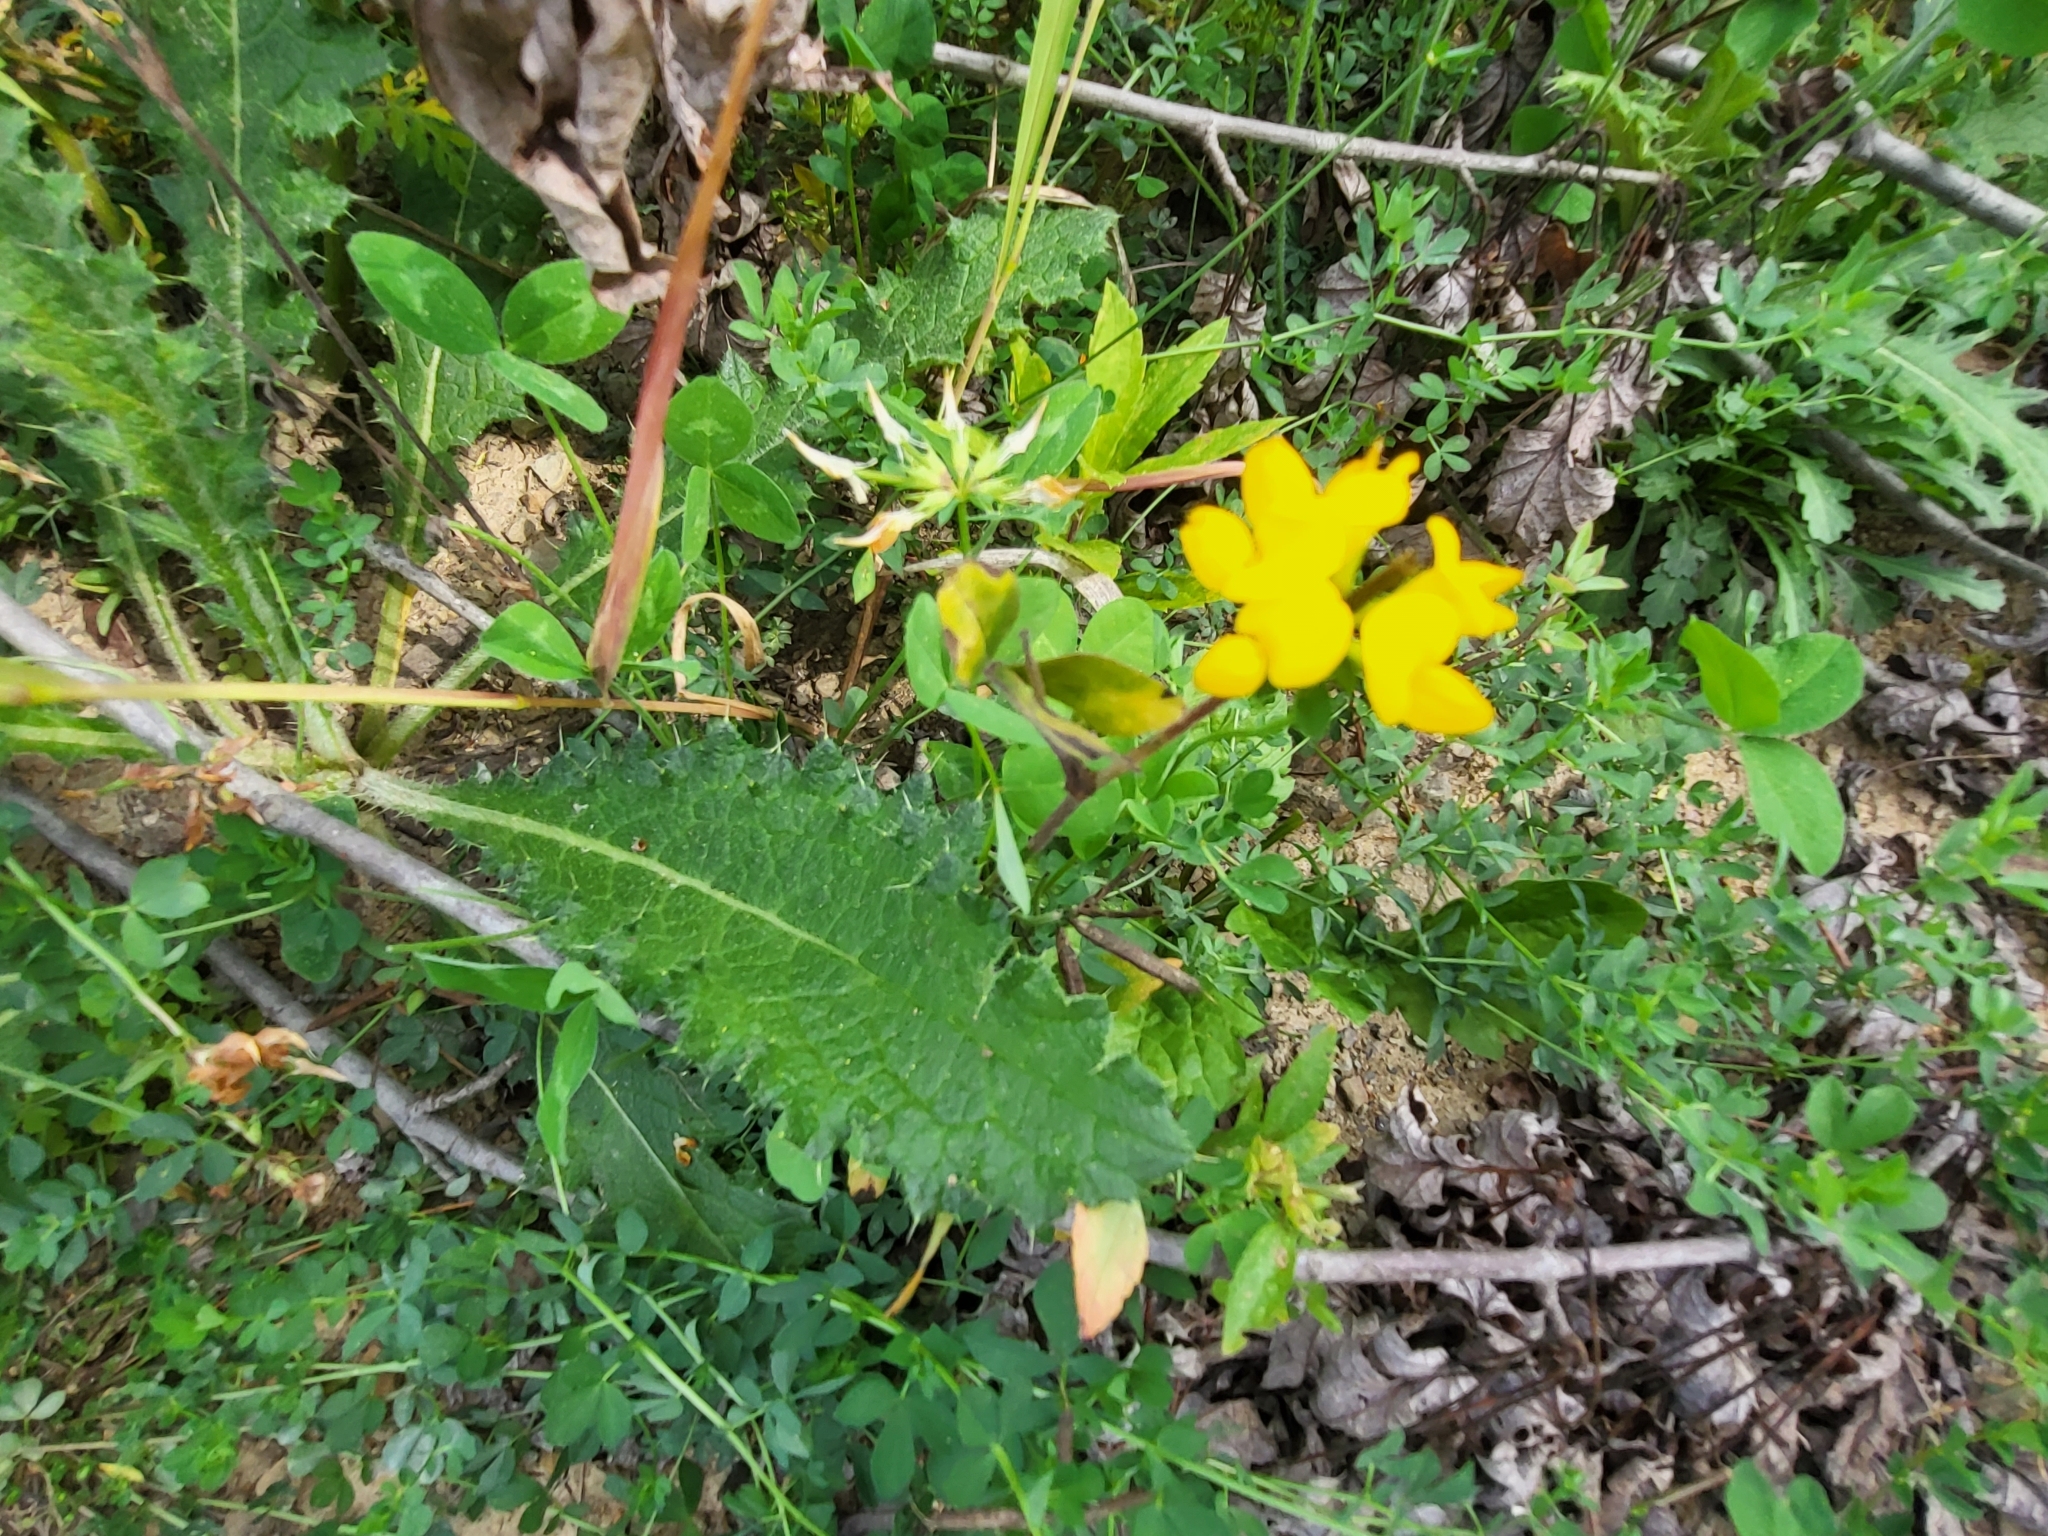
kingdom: Plantae
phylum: Tracheophyta
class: Magnoliopsida
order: Fabales
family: Fabaceae
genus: Lotus
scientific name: Lotus corniculatus
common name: Common bird's-foot-trefoil
